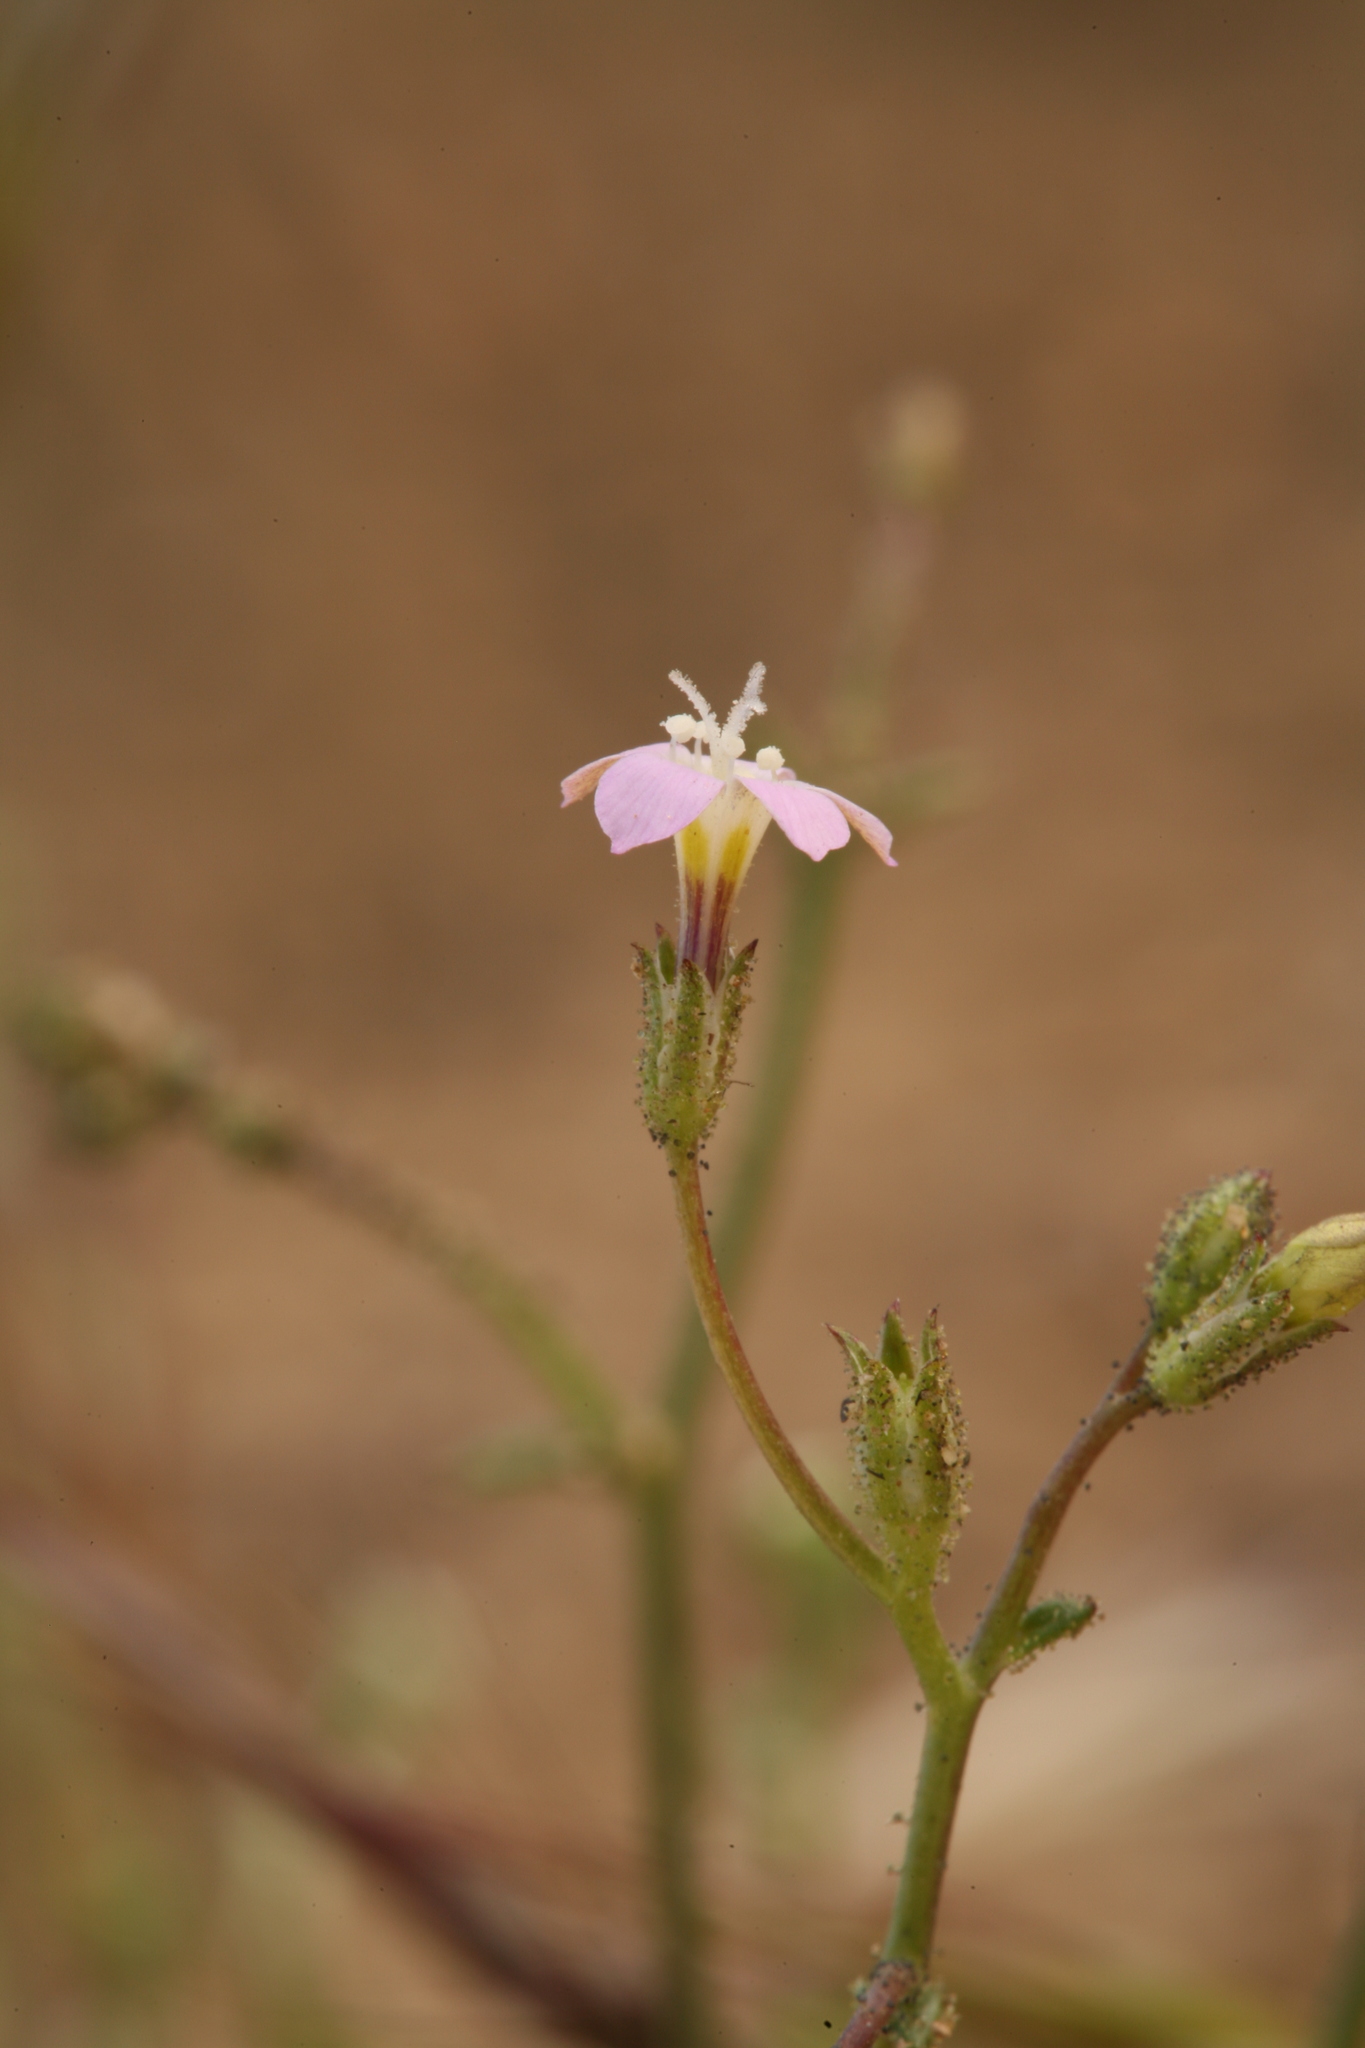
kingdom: Plantae
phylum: Tracheophyta
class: Magnoliopsida
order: Ericales
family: Polemoniaceae
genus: Gilia
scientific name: Gilia transmontana
